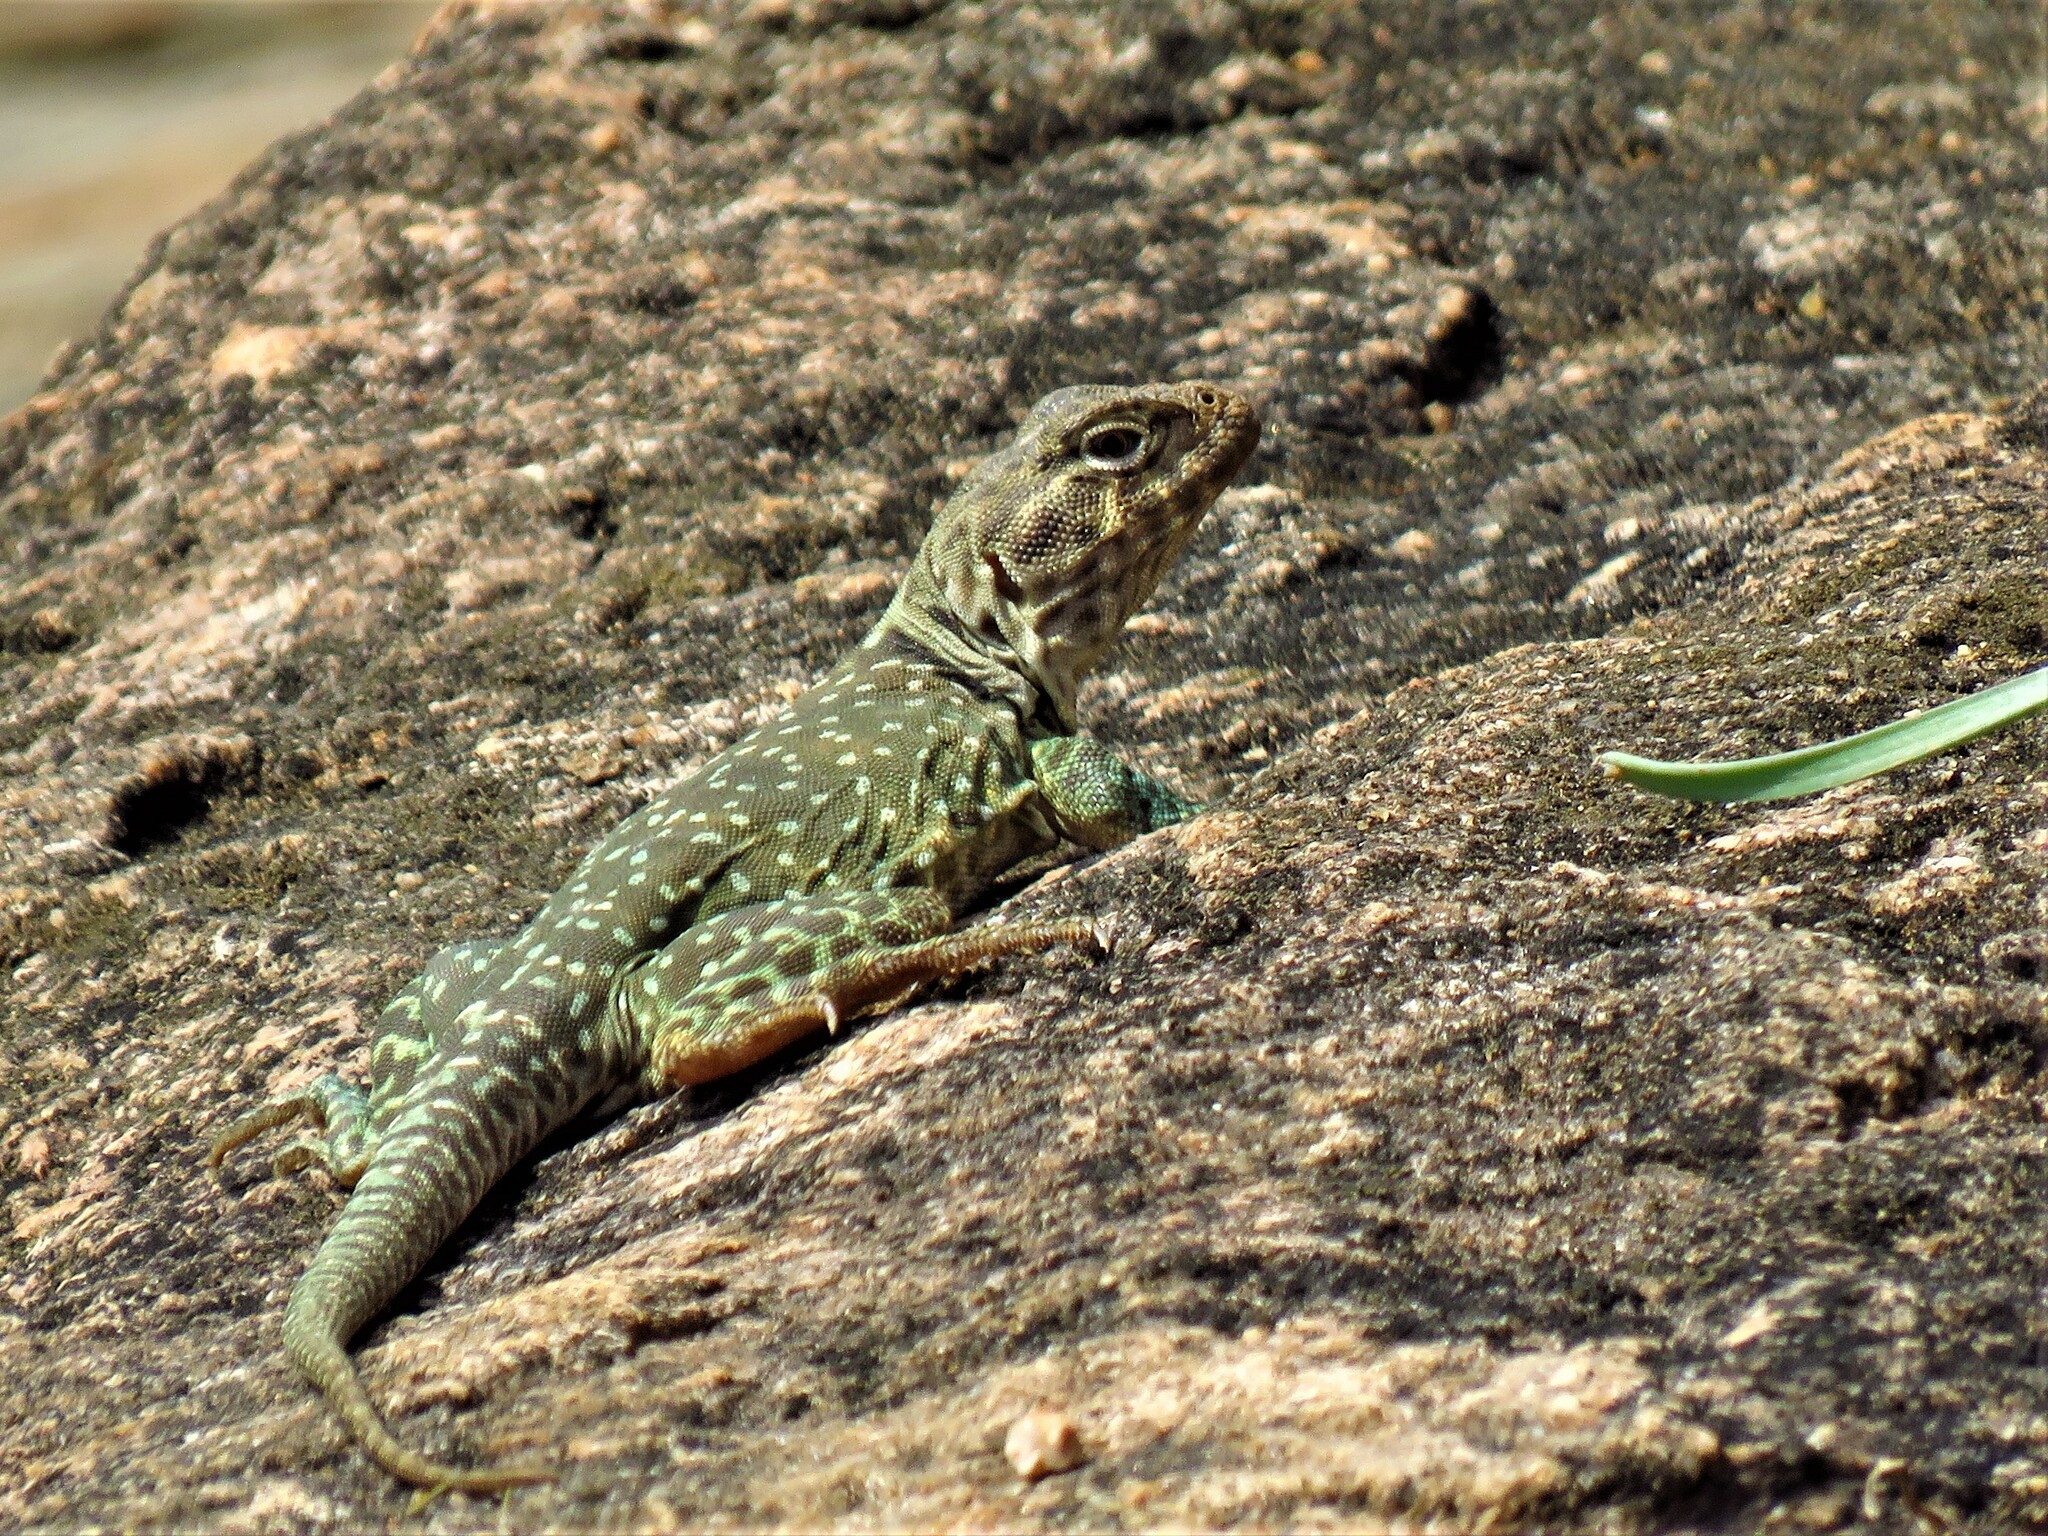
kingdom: Animalia
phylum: Chordata
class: Squamata
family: Crotaphytidae
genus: Crotaphytus
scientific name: Crotaphytus collaris
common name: Collared lizard
